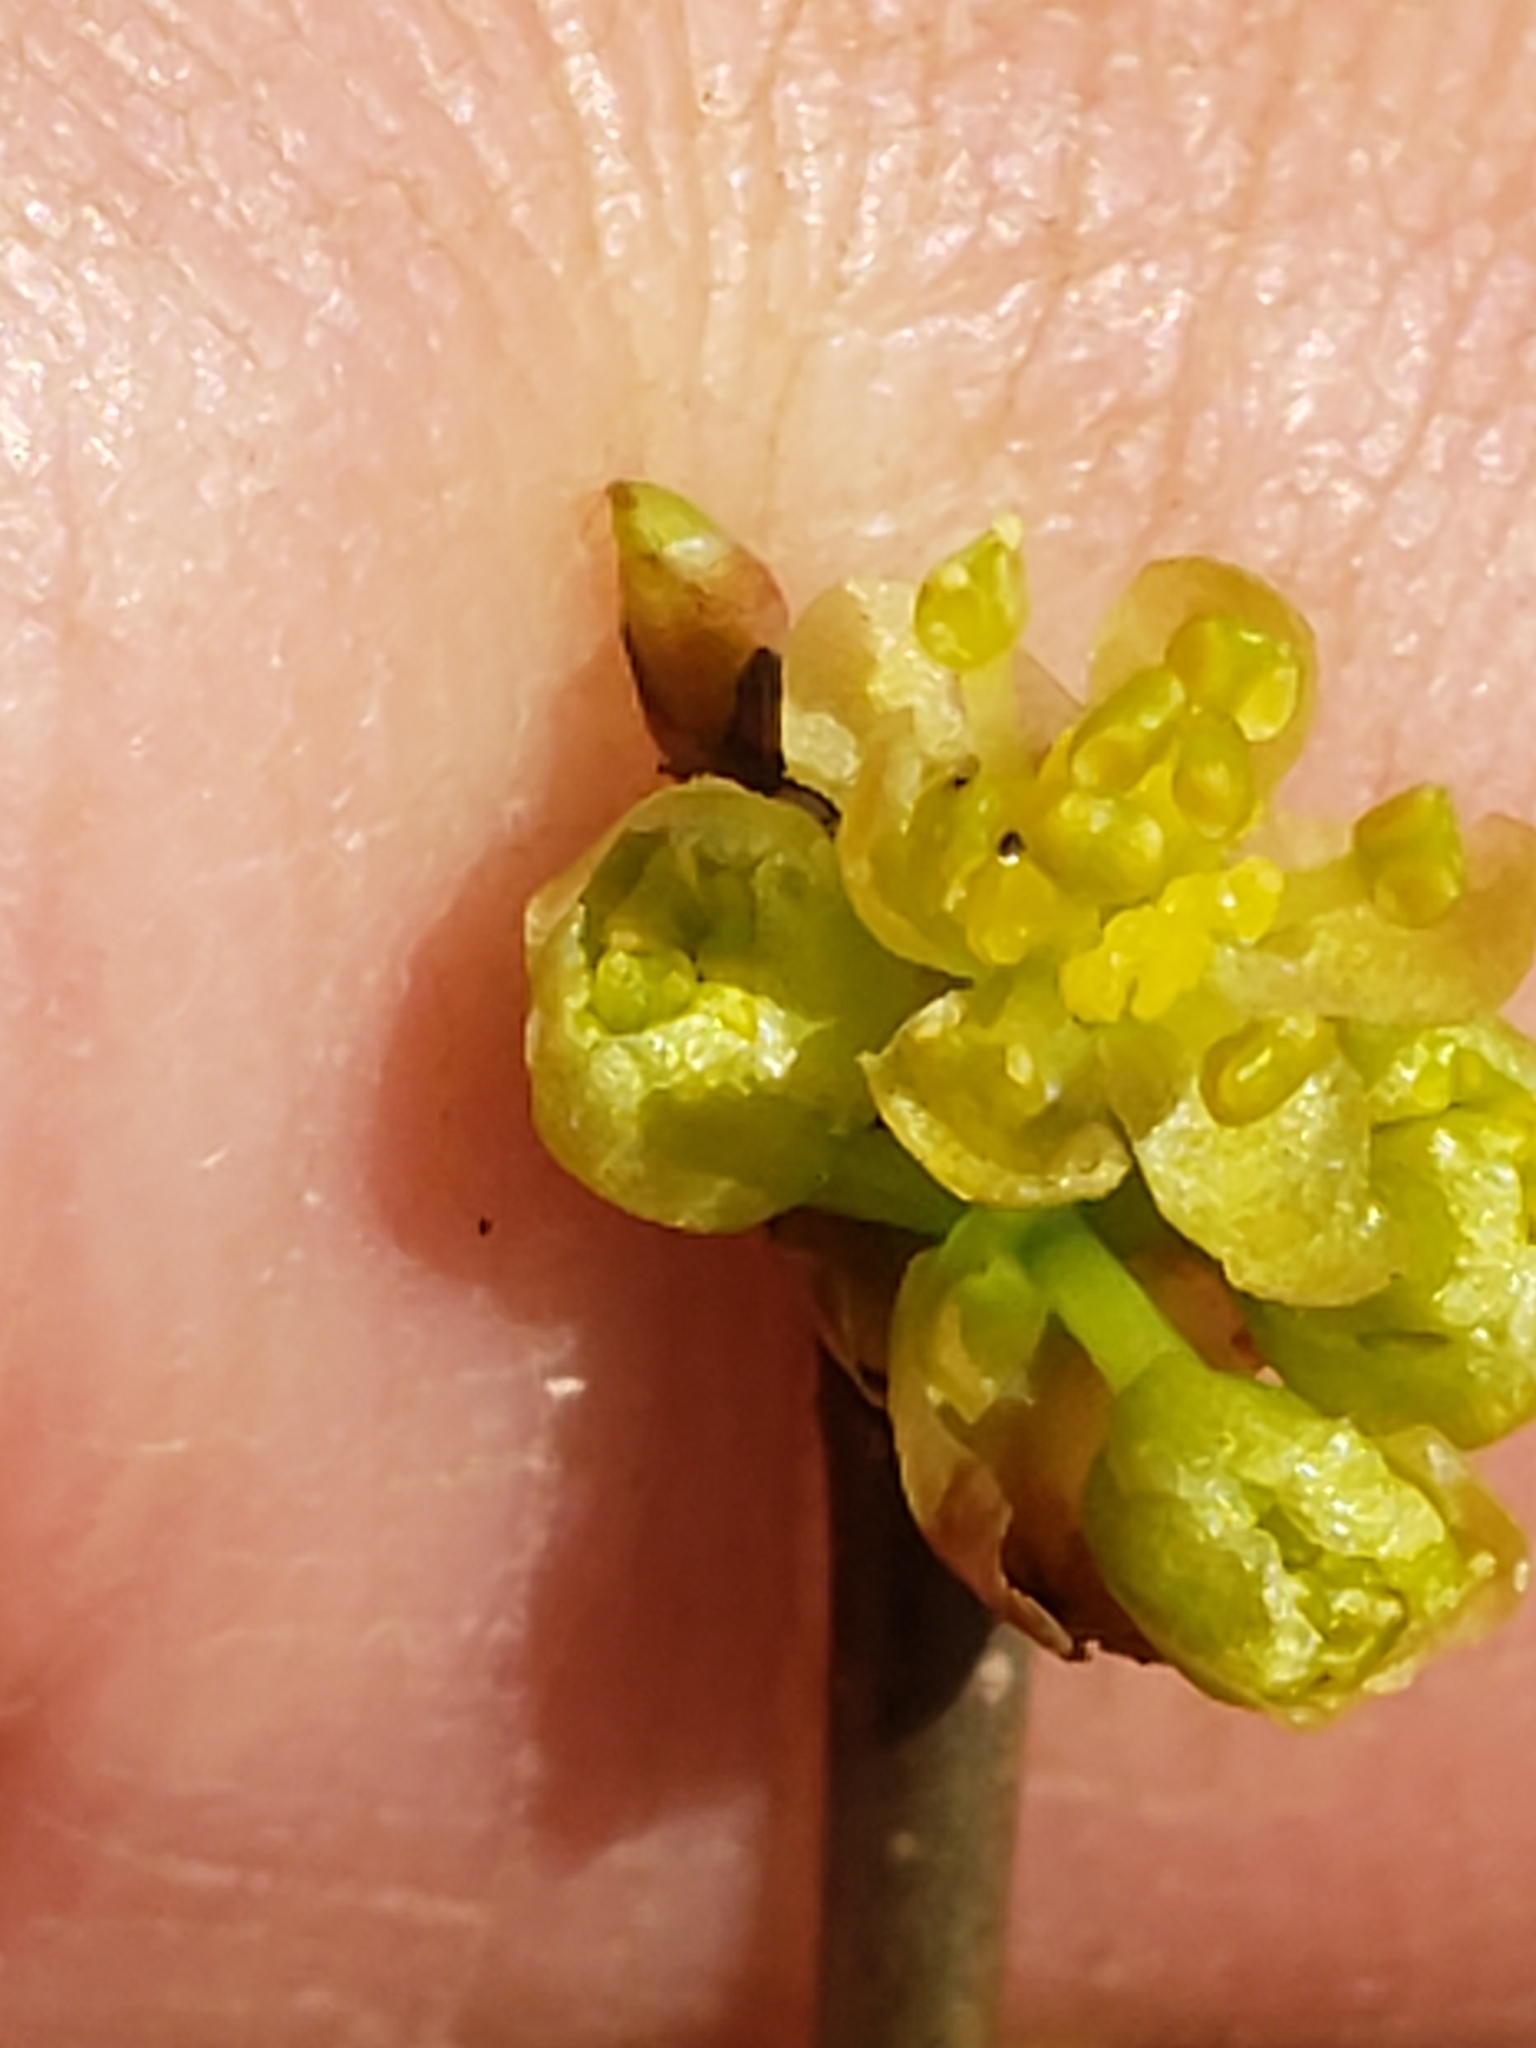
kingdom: Plantae
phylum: Tracheophyta
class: Magnoliopsida
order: Laurales
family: Lauraceae
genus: Lindera
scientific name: Lindera benzoin
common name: Spicebush
